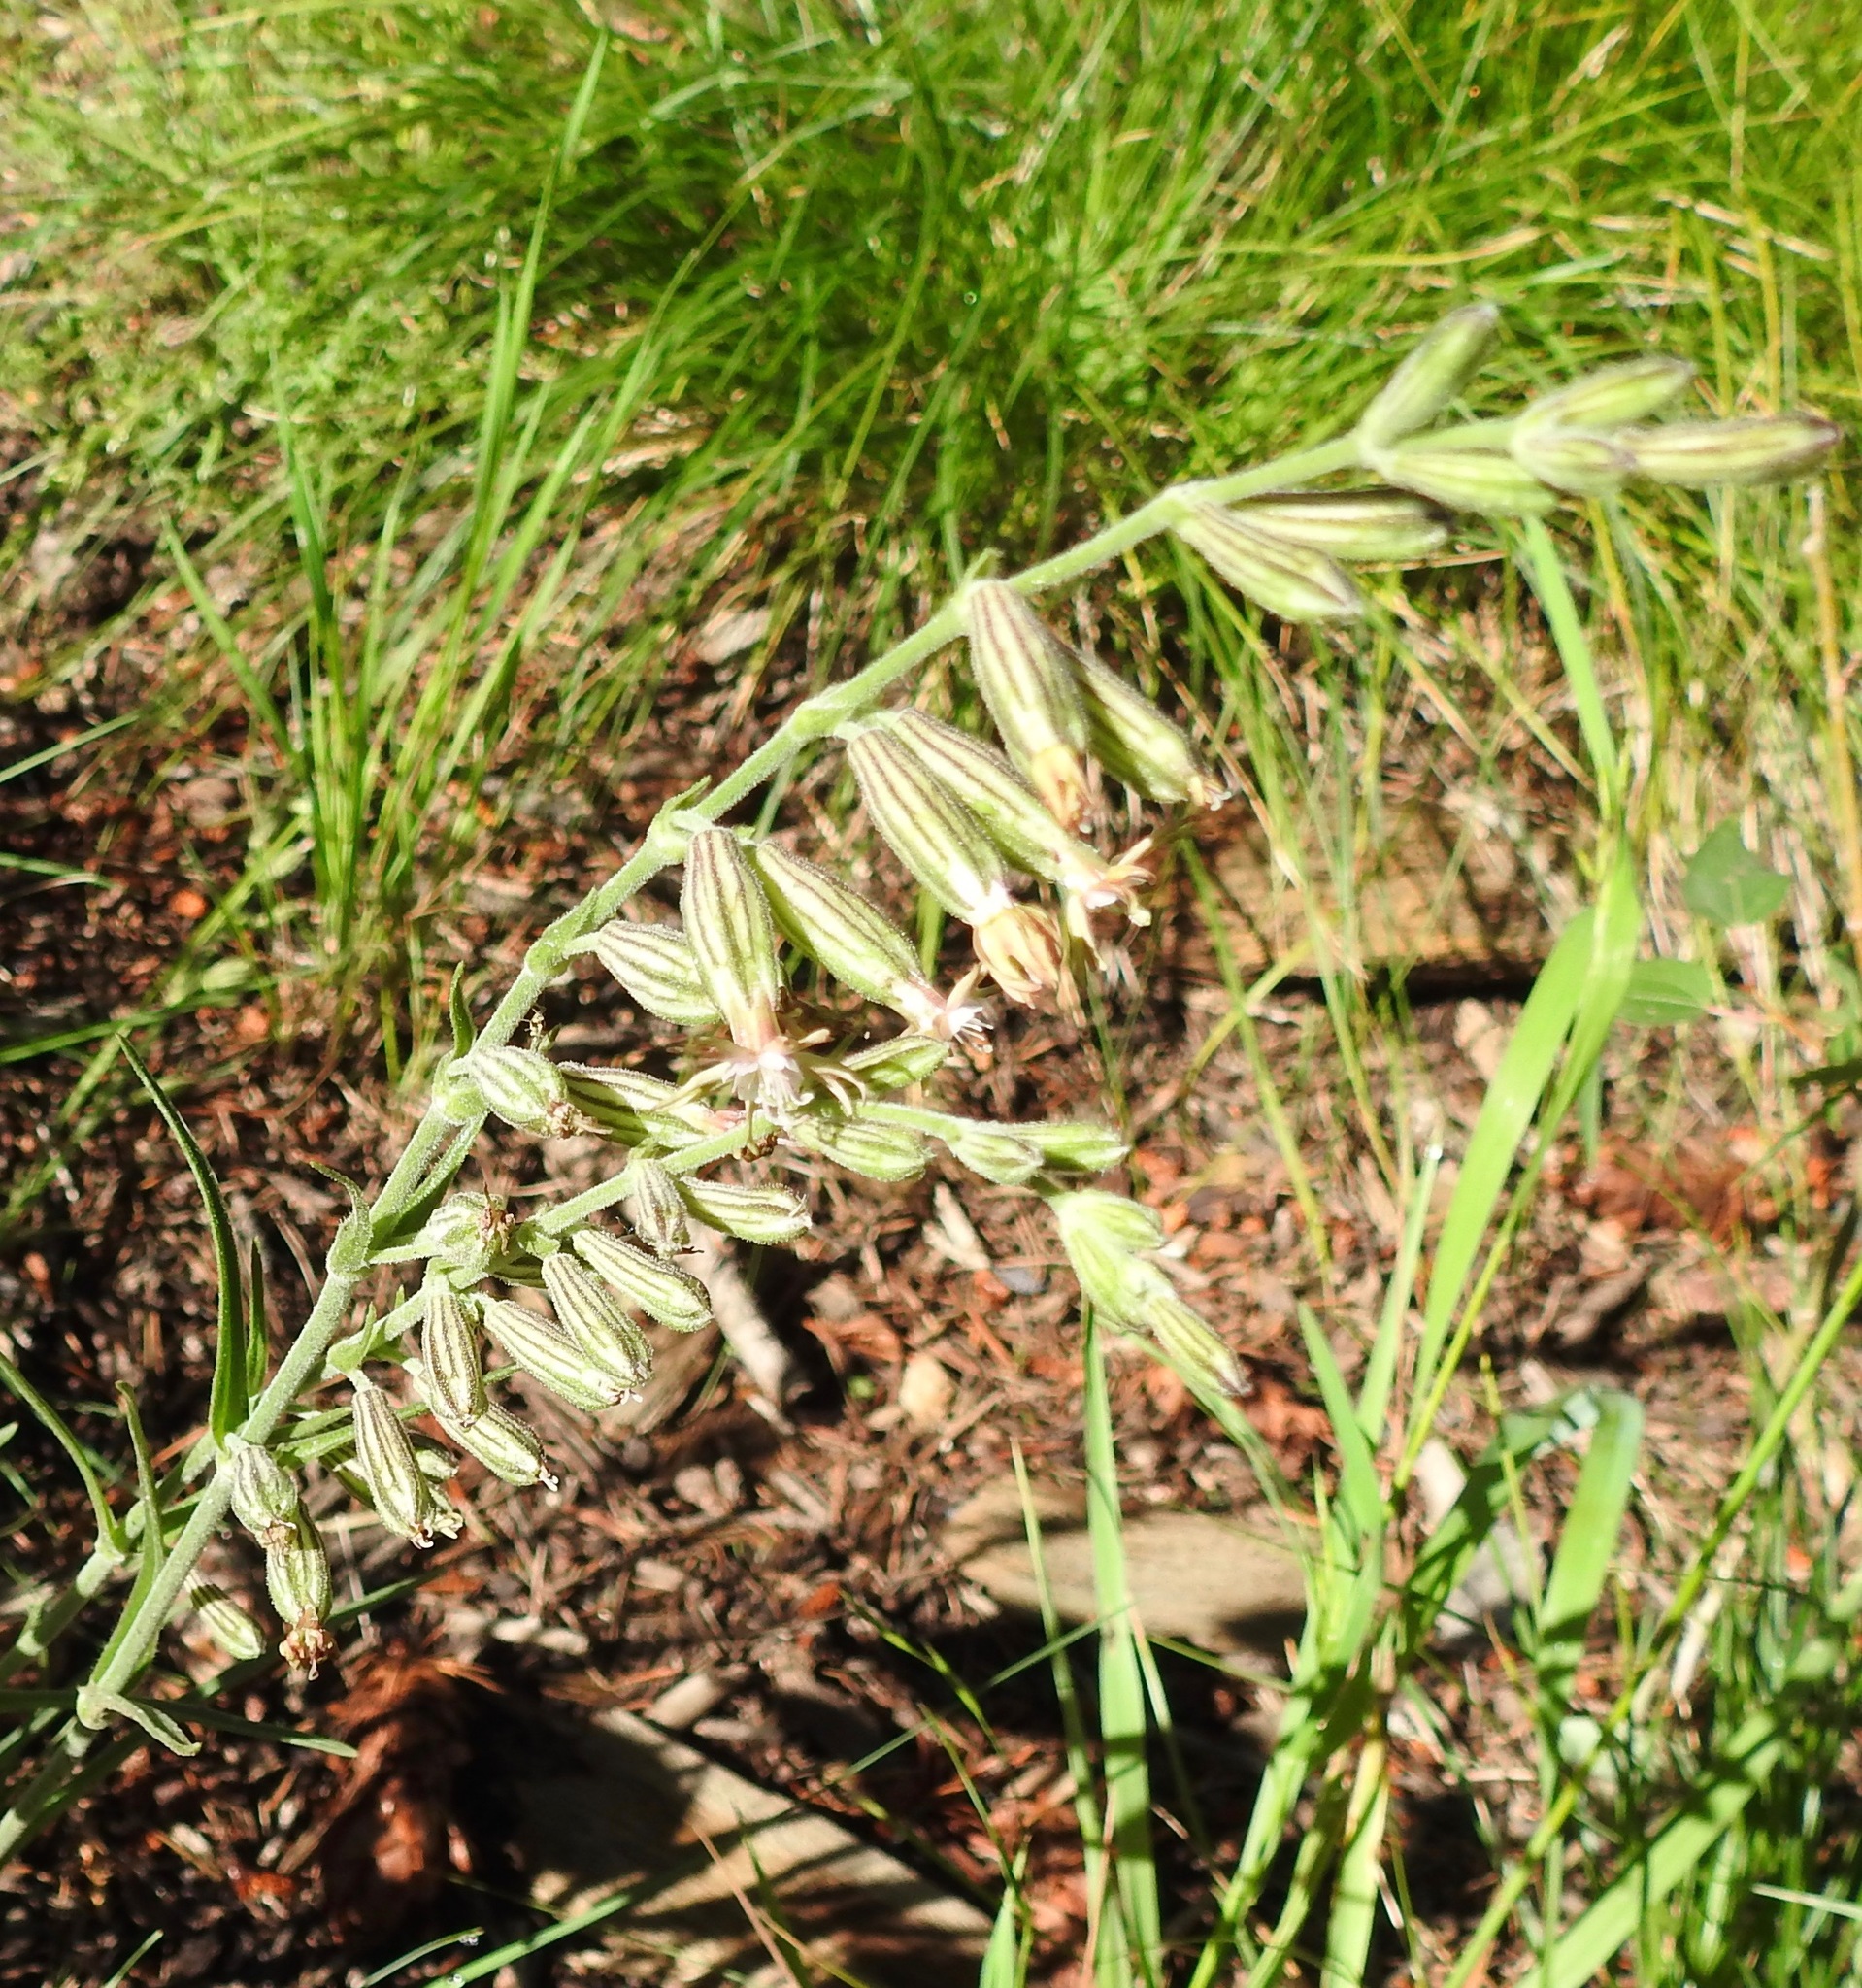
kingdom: Plantae
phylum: Tracheophyta
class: Magnoliopsida
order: Caryophyllales
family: Caryophyllaceae
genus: Silene
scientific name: Silene scouleri
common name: Scouler's campion
